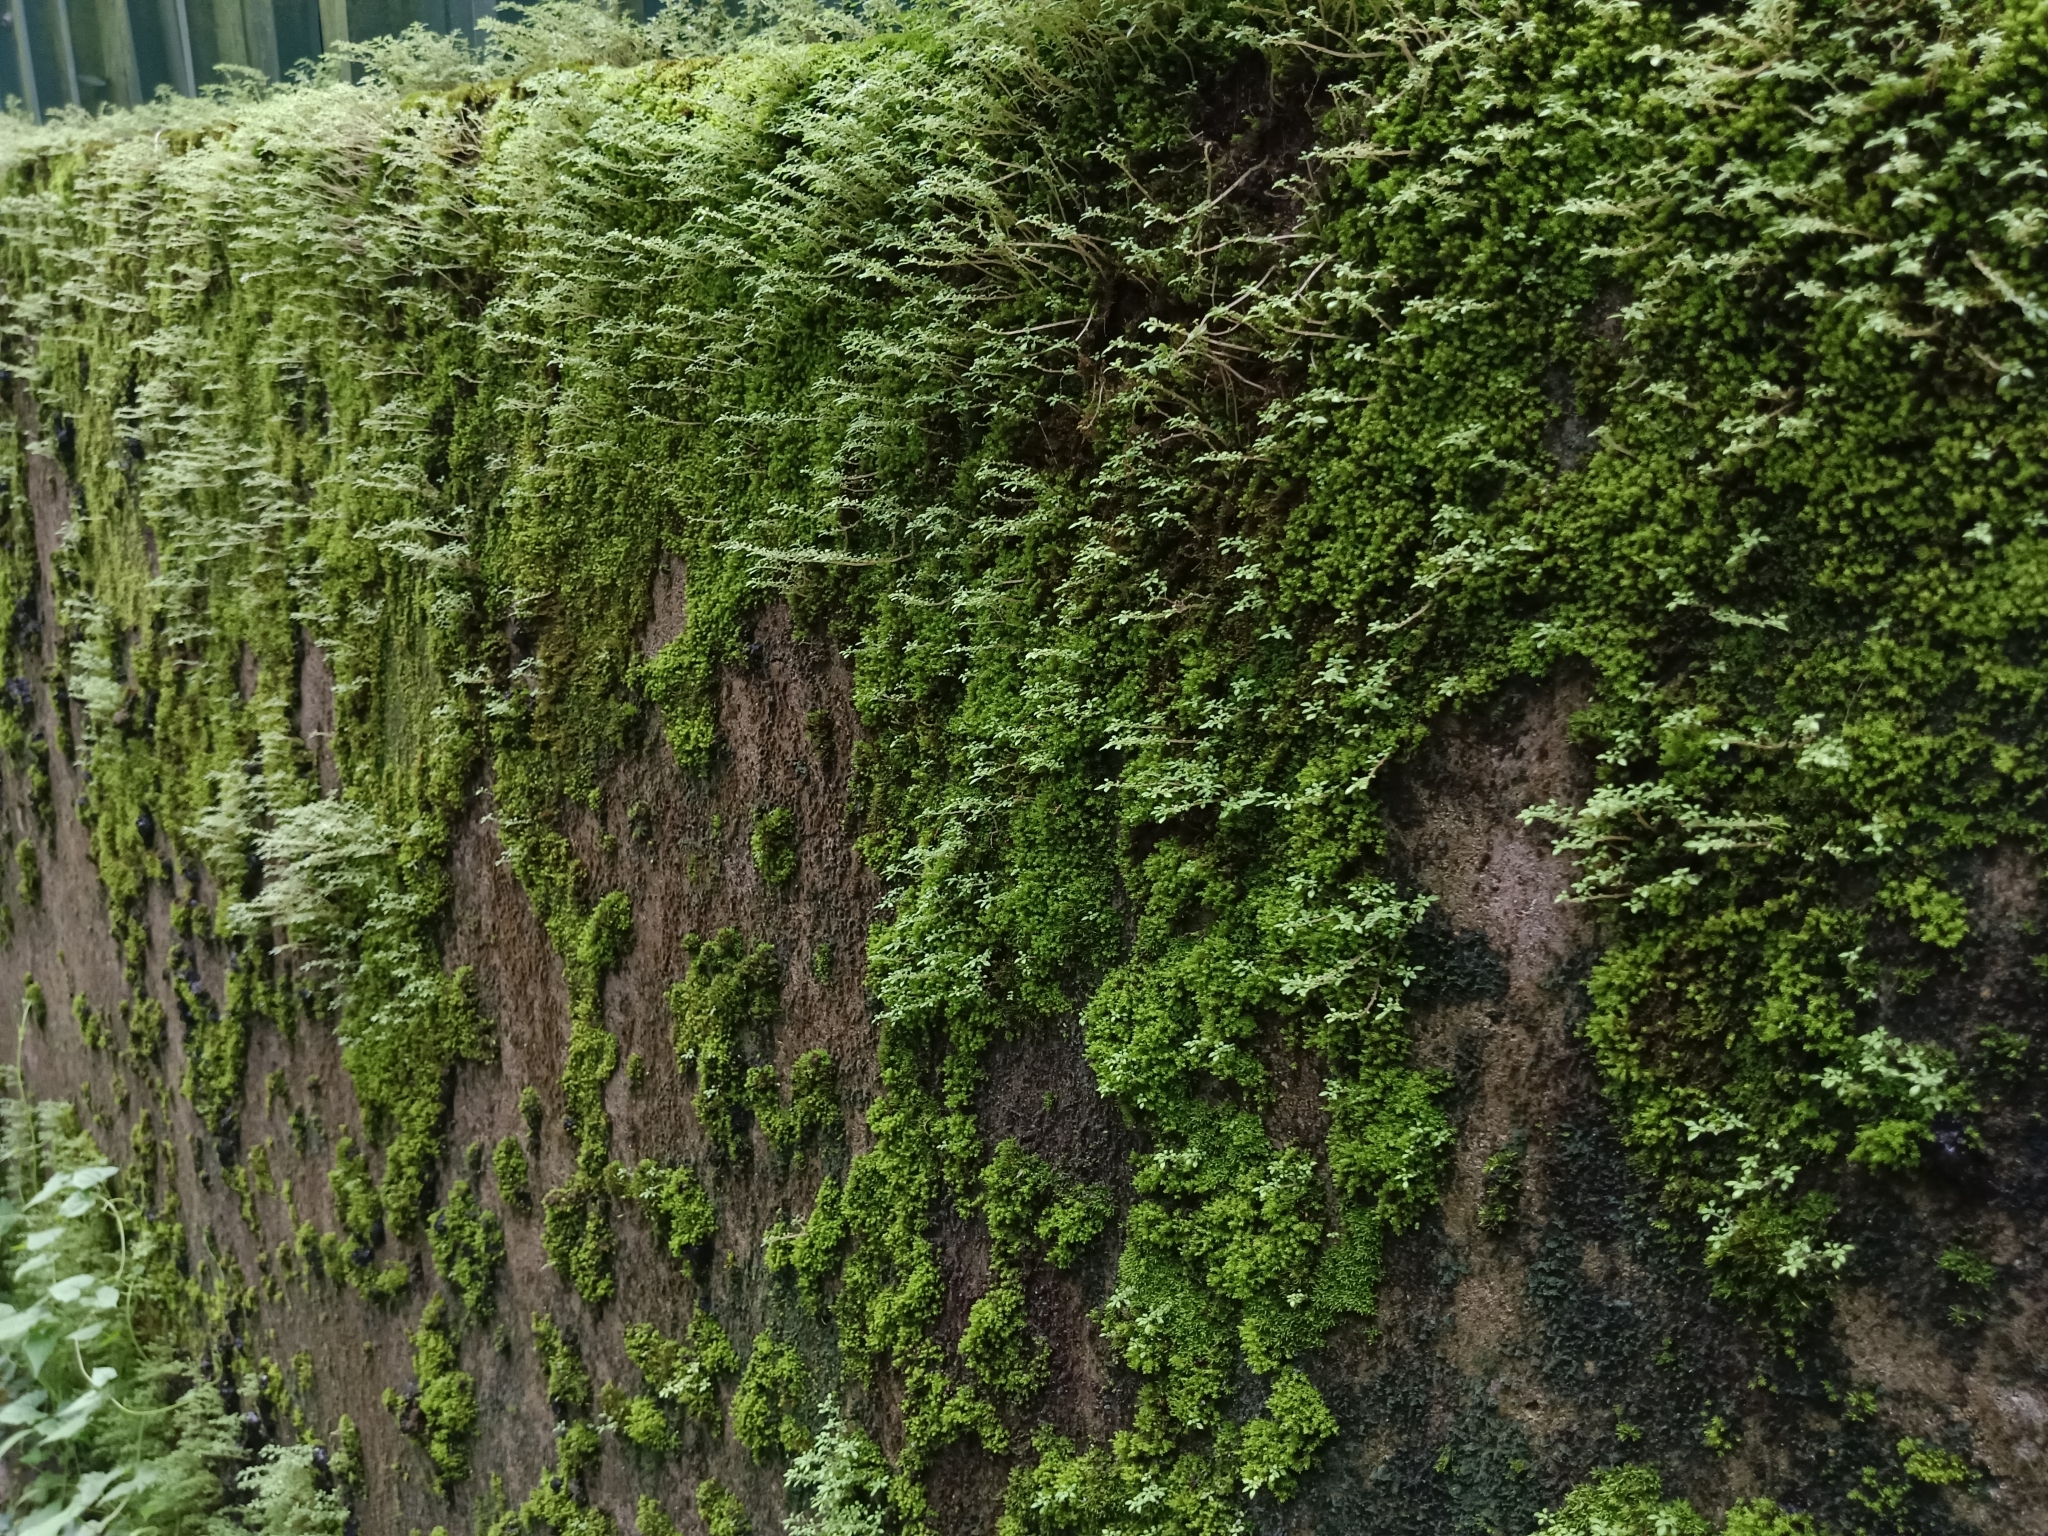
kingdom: Plantae
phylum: Tracheophyta
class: Magnoliopsida
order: Rosales
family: Urticaceae
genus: Pilea
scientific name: Pilea microphylla
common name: Artillery-plant
